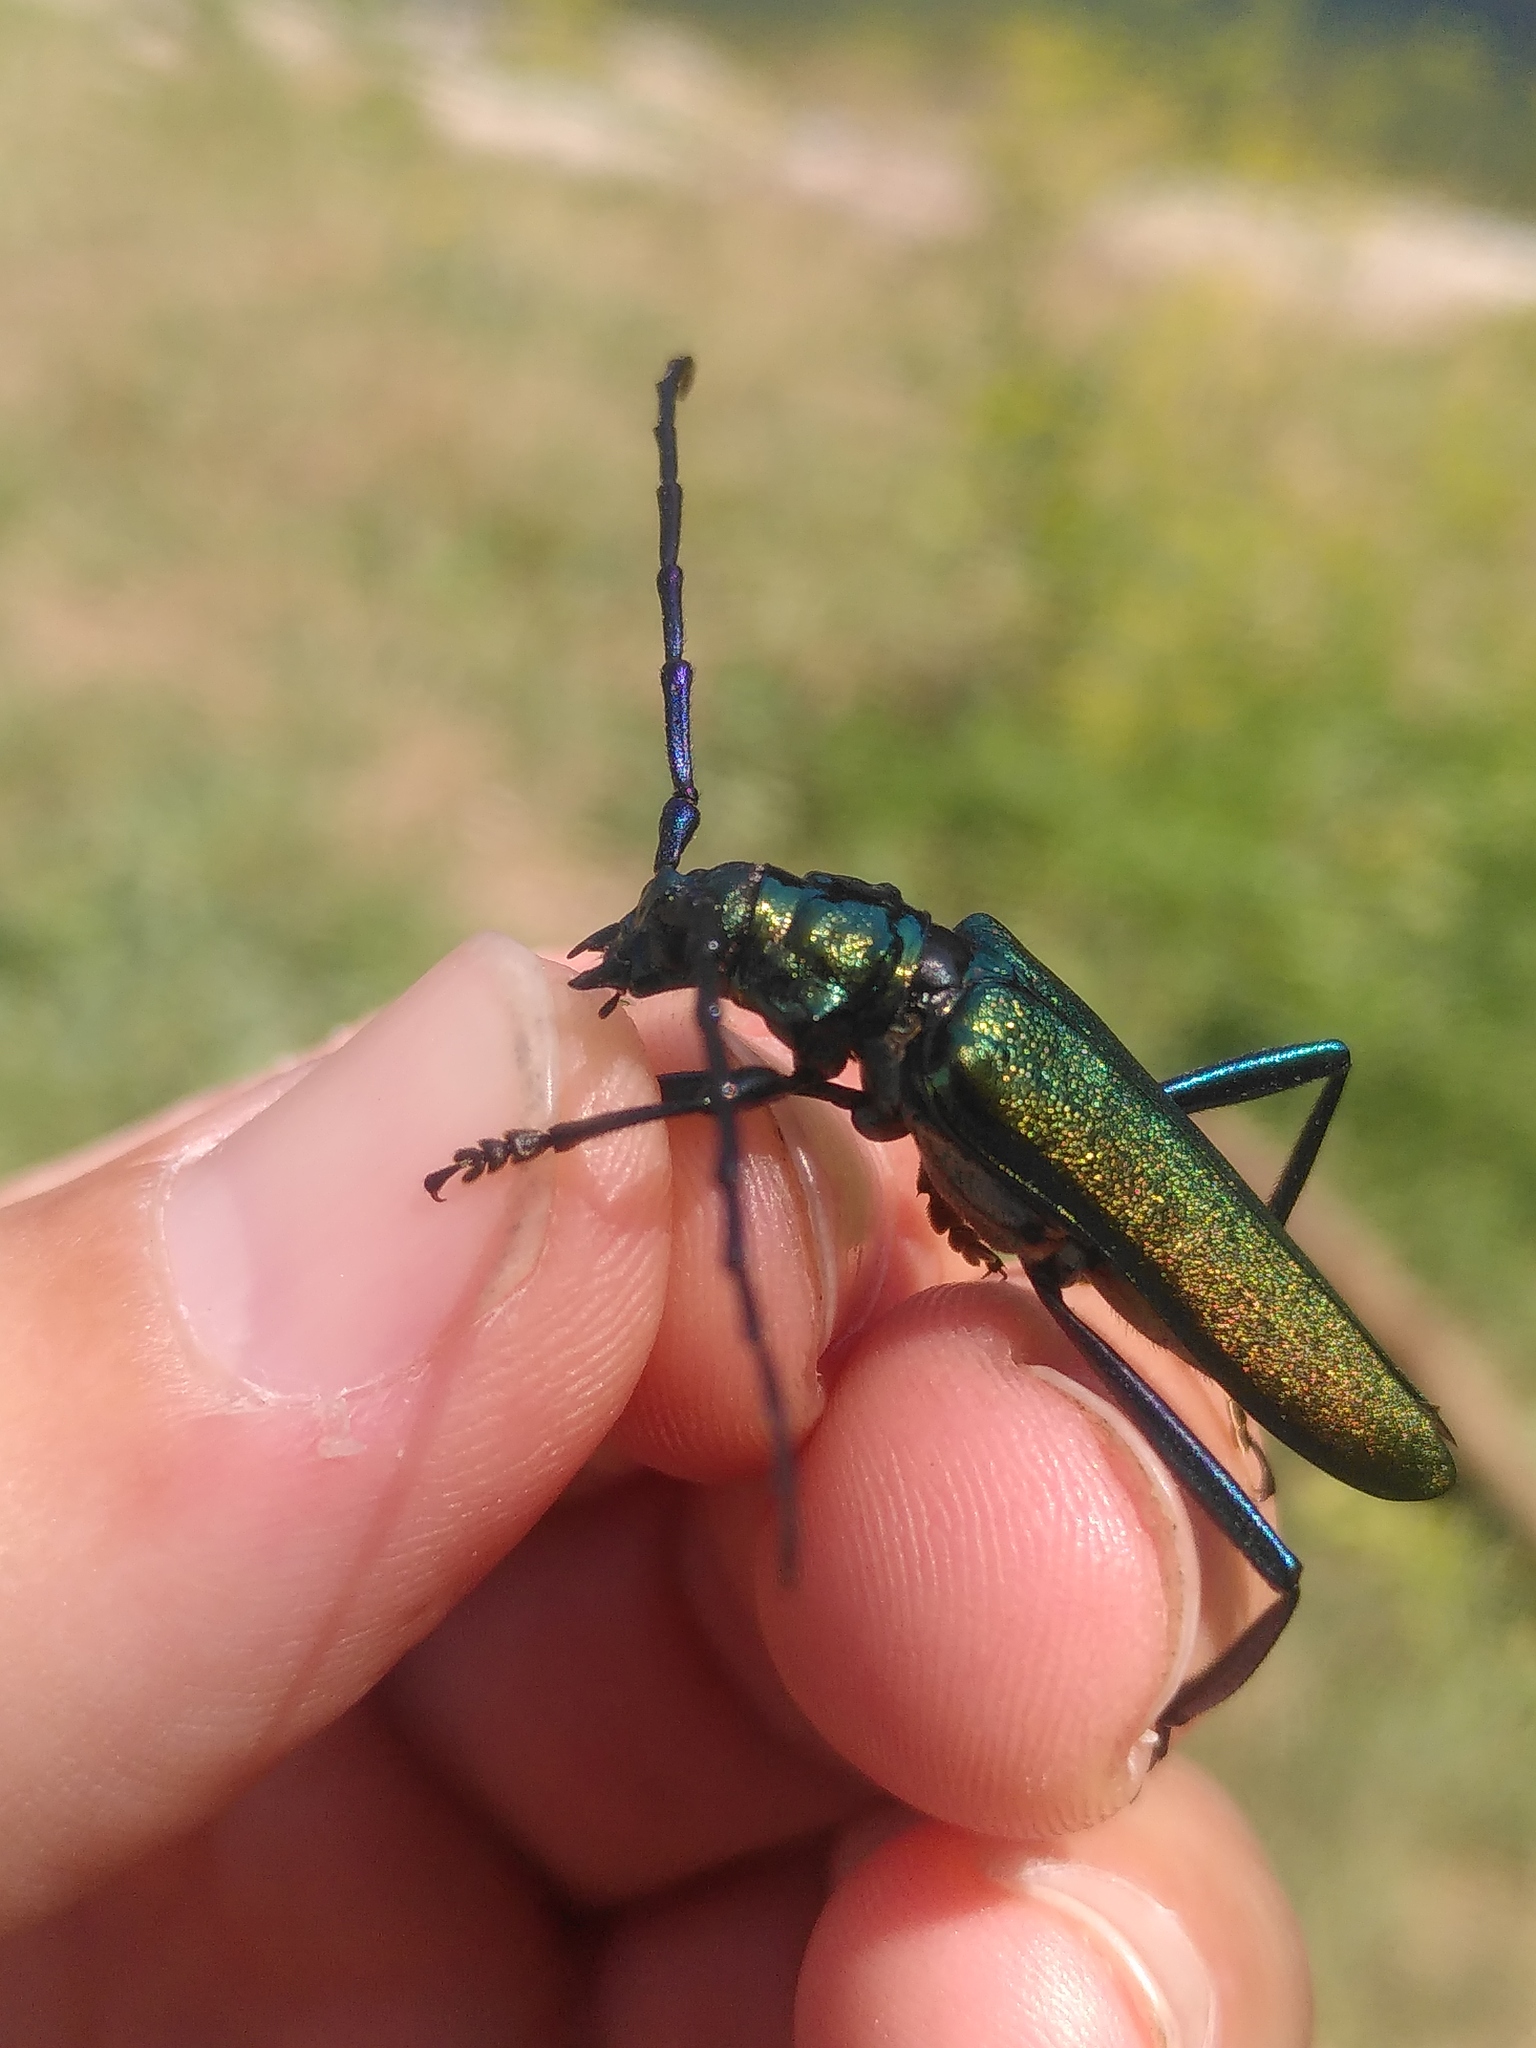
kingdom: Animalia
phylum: Arthropoda
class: Insecta
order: Coleoptera
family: Cerambycidae
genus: Aromia
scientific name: Aromia moschata
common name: Musk beetle
